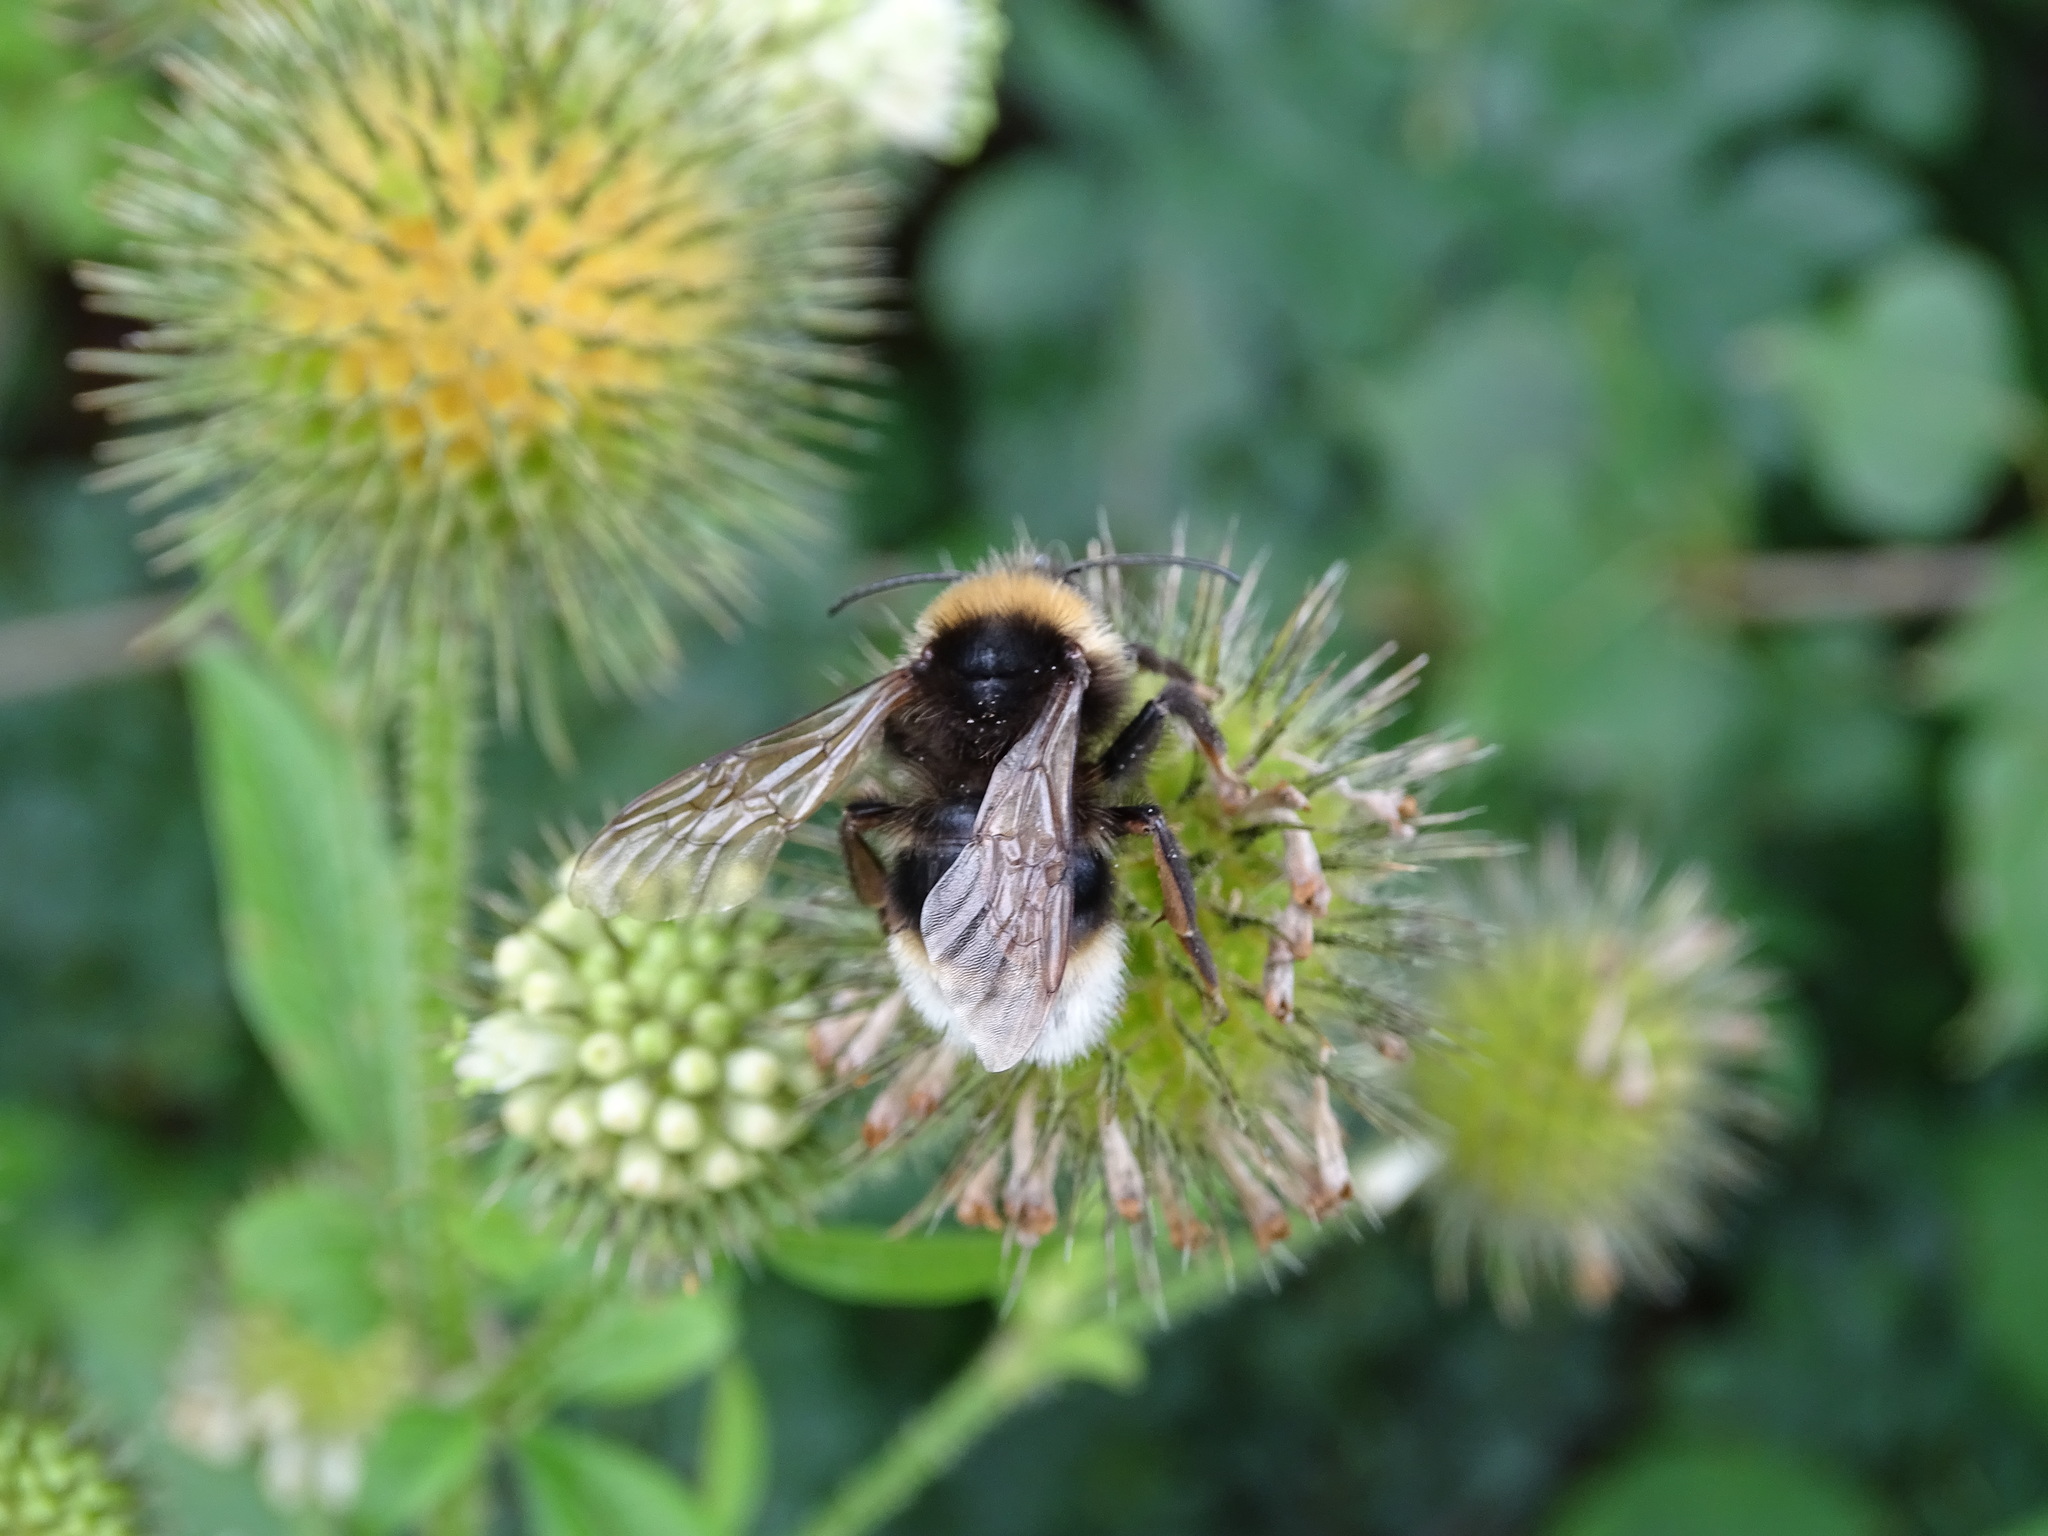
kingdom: Animalia
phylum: Arthropoda
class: Insecta
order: Hymenoptera
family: Apidae
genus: Bombus
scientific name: Bombus vestalis
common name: Vestal cuckoo bee
